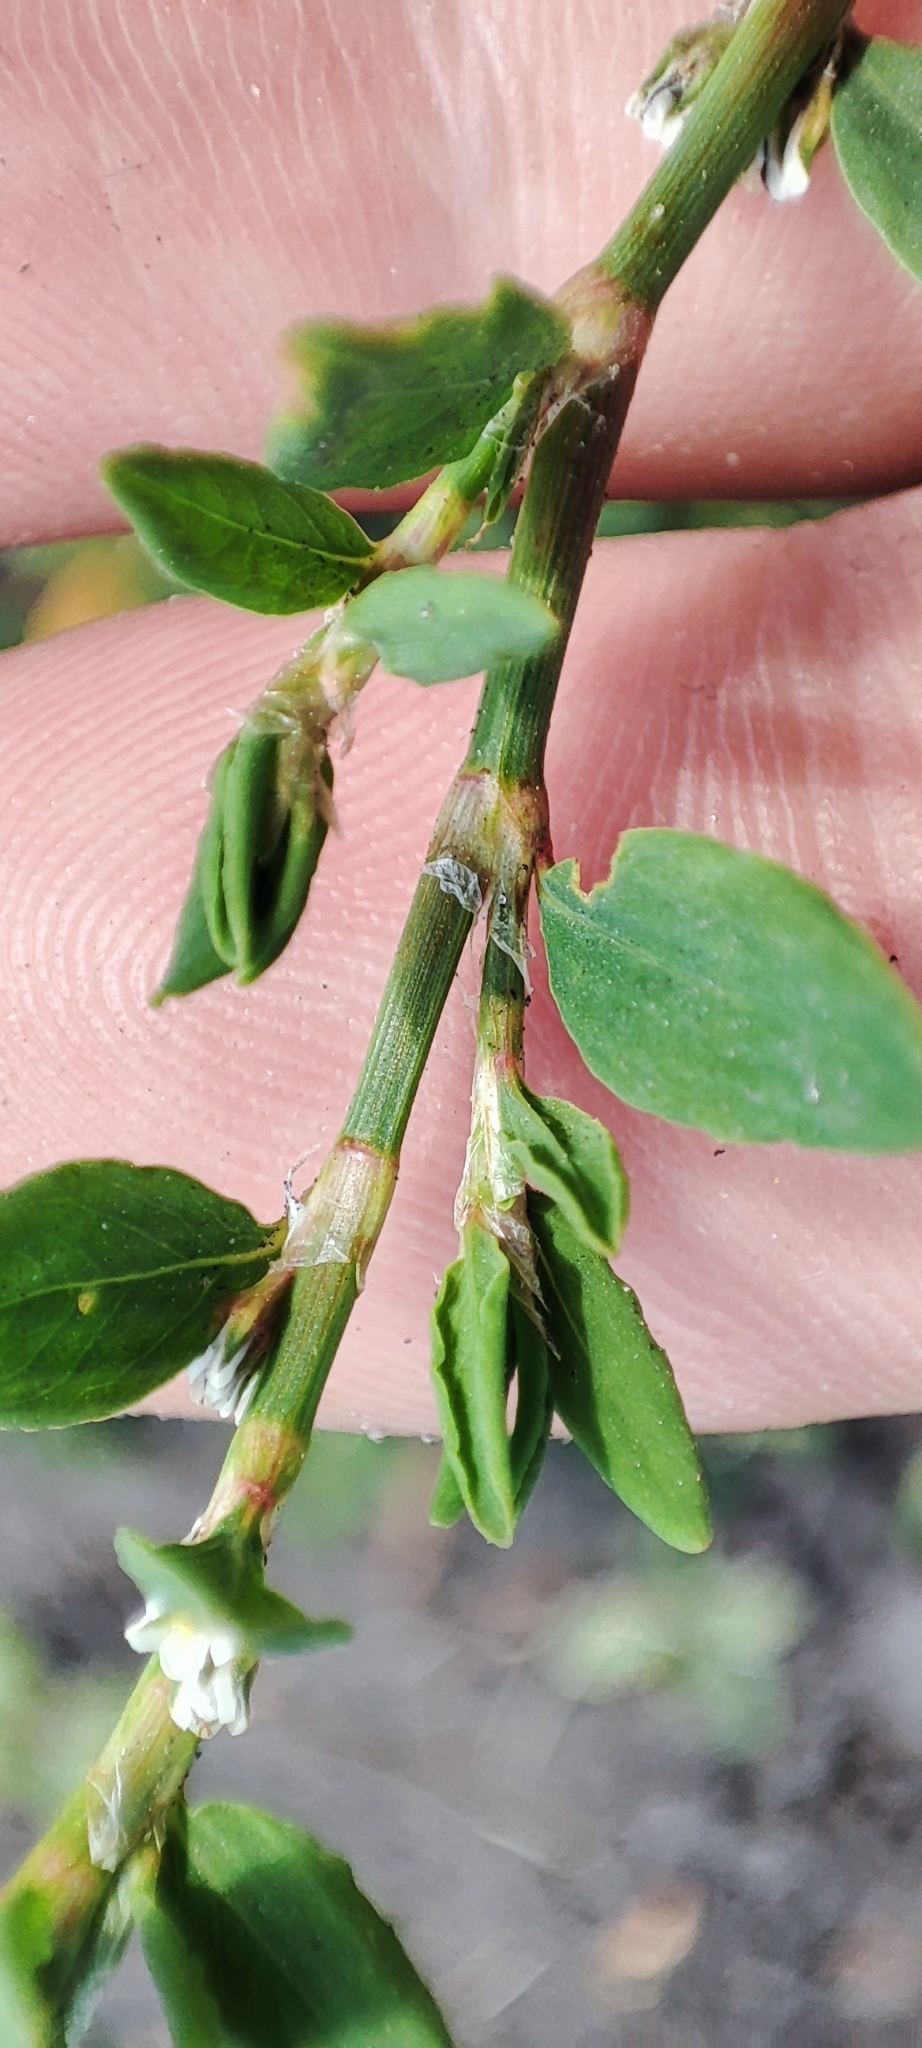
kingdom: Plantae
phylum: Tracheophyta
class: Magnoliopsida
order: Caryophyllales
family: Polygonaceae
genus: Polygonum
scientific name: Polygonum
